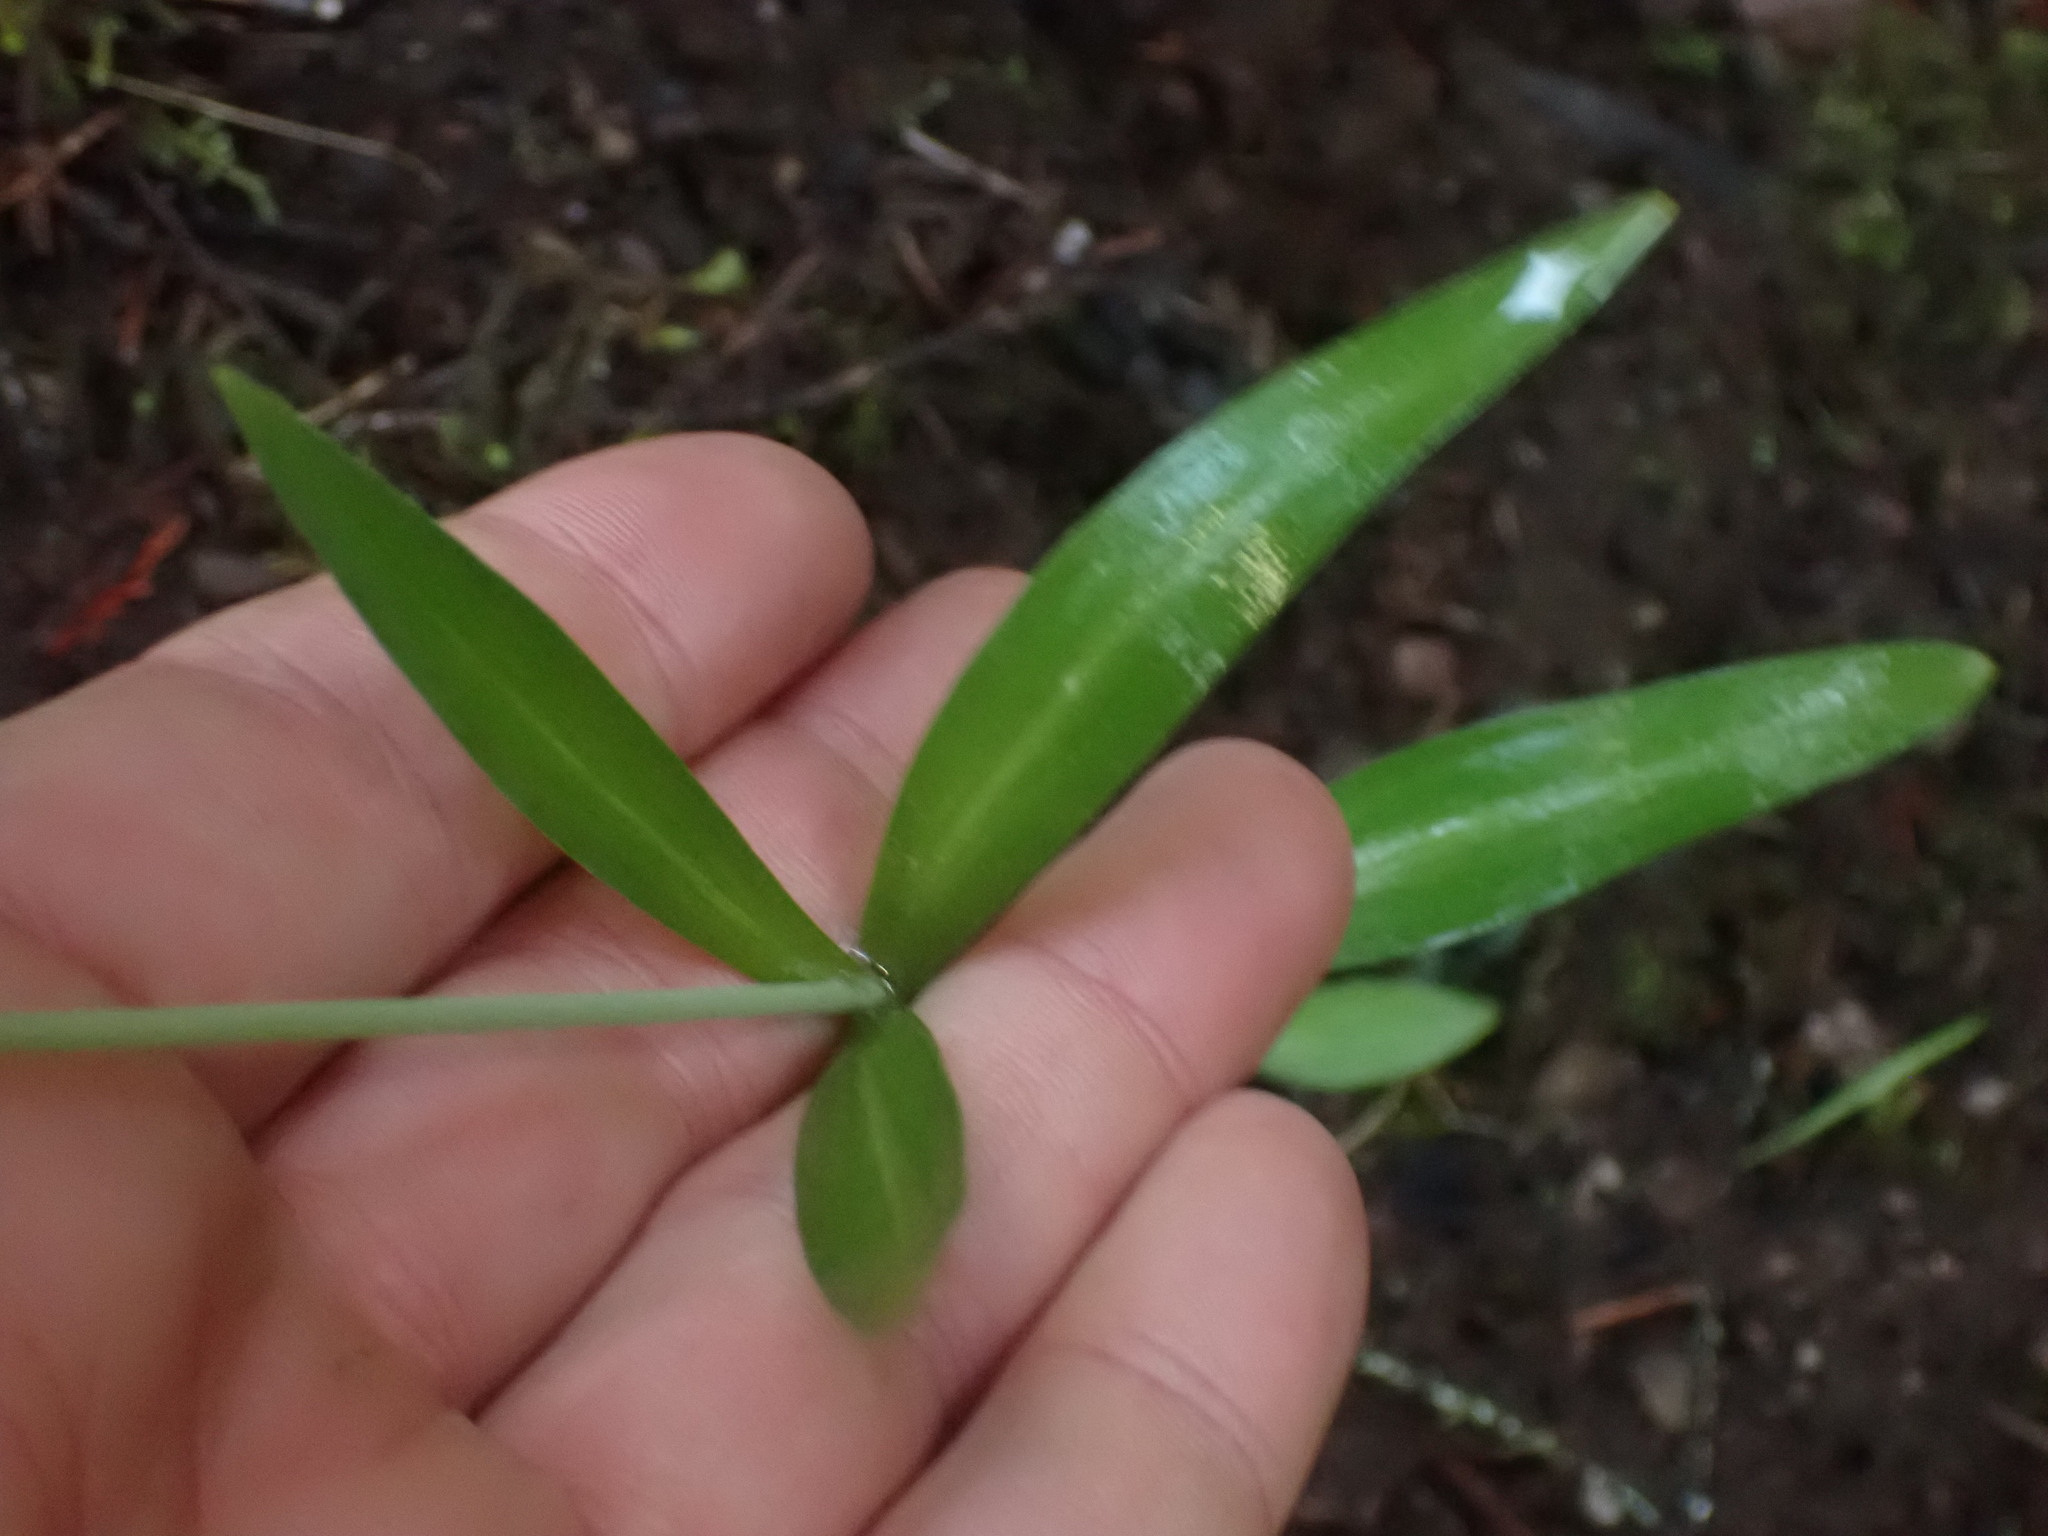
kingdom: Plantae
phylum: Tracheophyta
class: Liliopsida
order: Liliales
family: Liliaceae
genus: Fritillaria
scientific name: Fritillaria affinis
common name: Ojai fritillary
